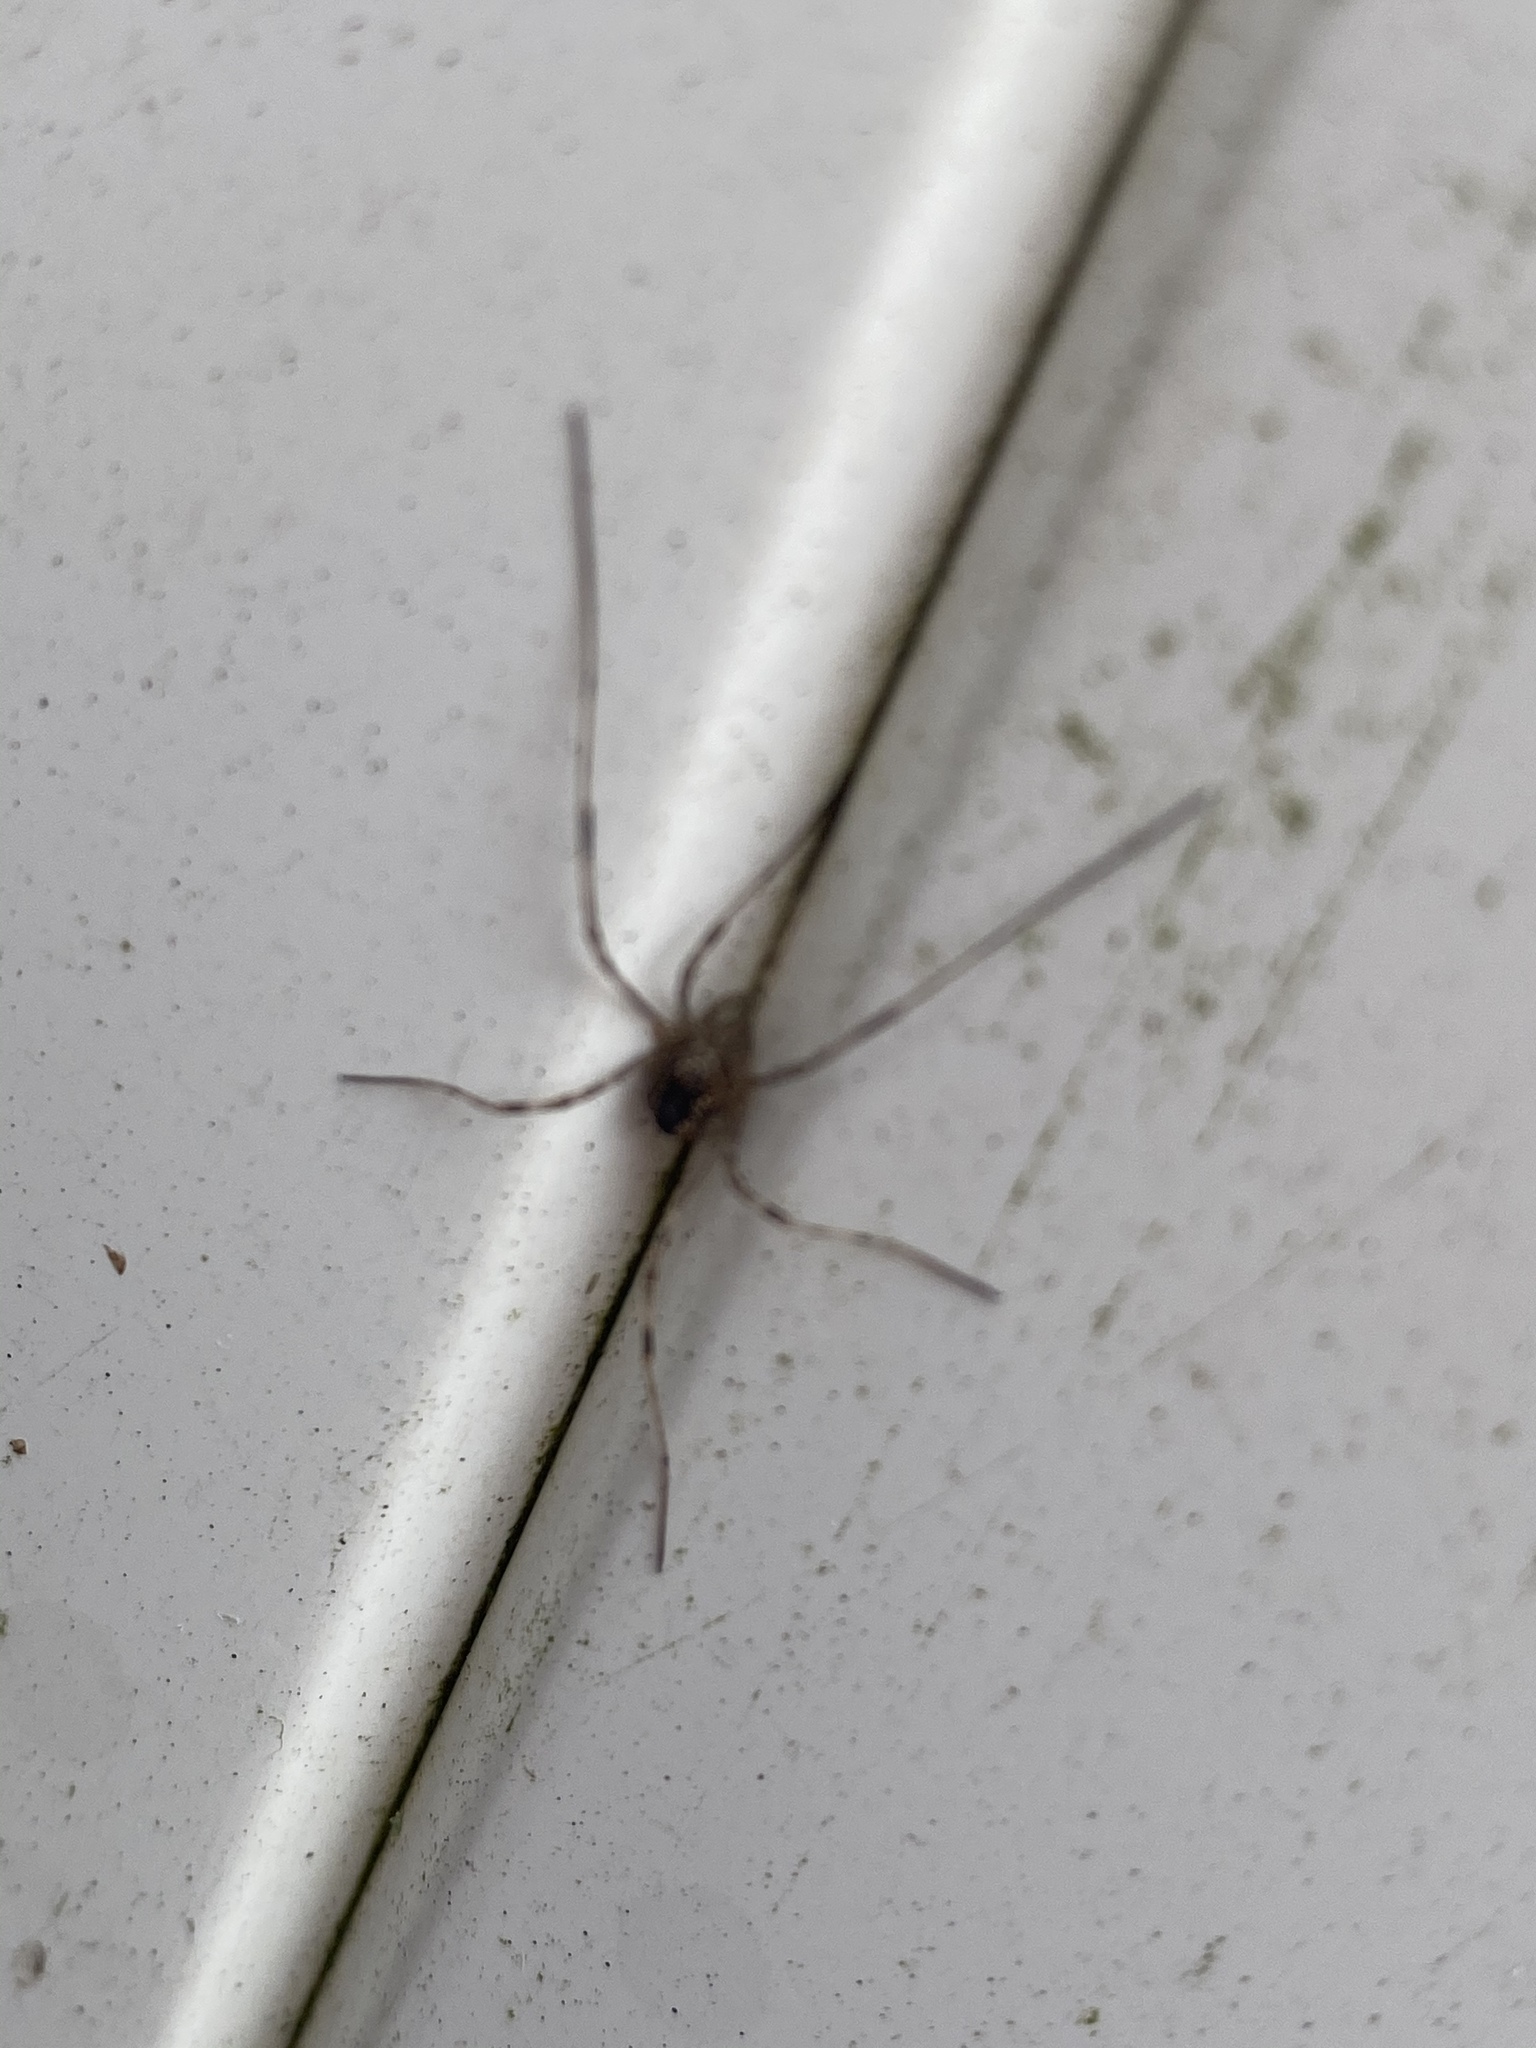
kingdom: Animalia
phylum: Arthropoda
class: Arachnida
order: Araneae
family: Pholcidae
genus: Pholcus
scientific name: Pholcus phalangioides
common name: Longbodied cellar spider
